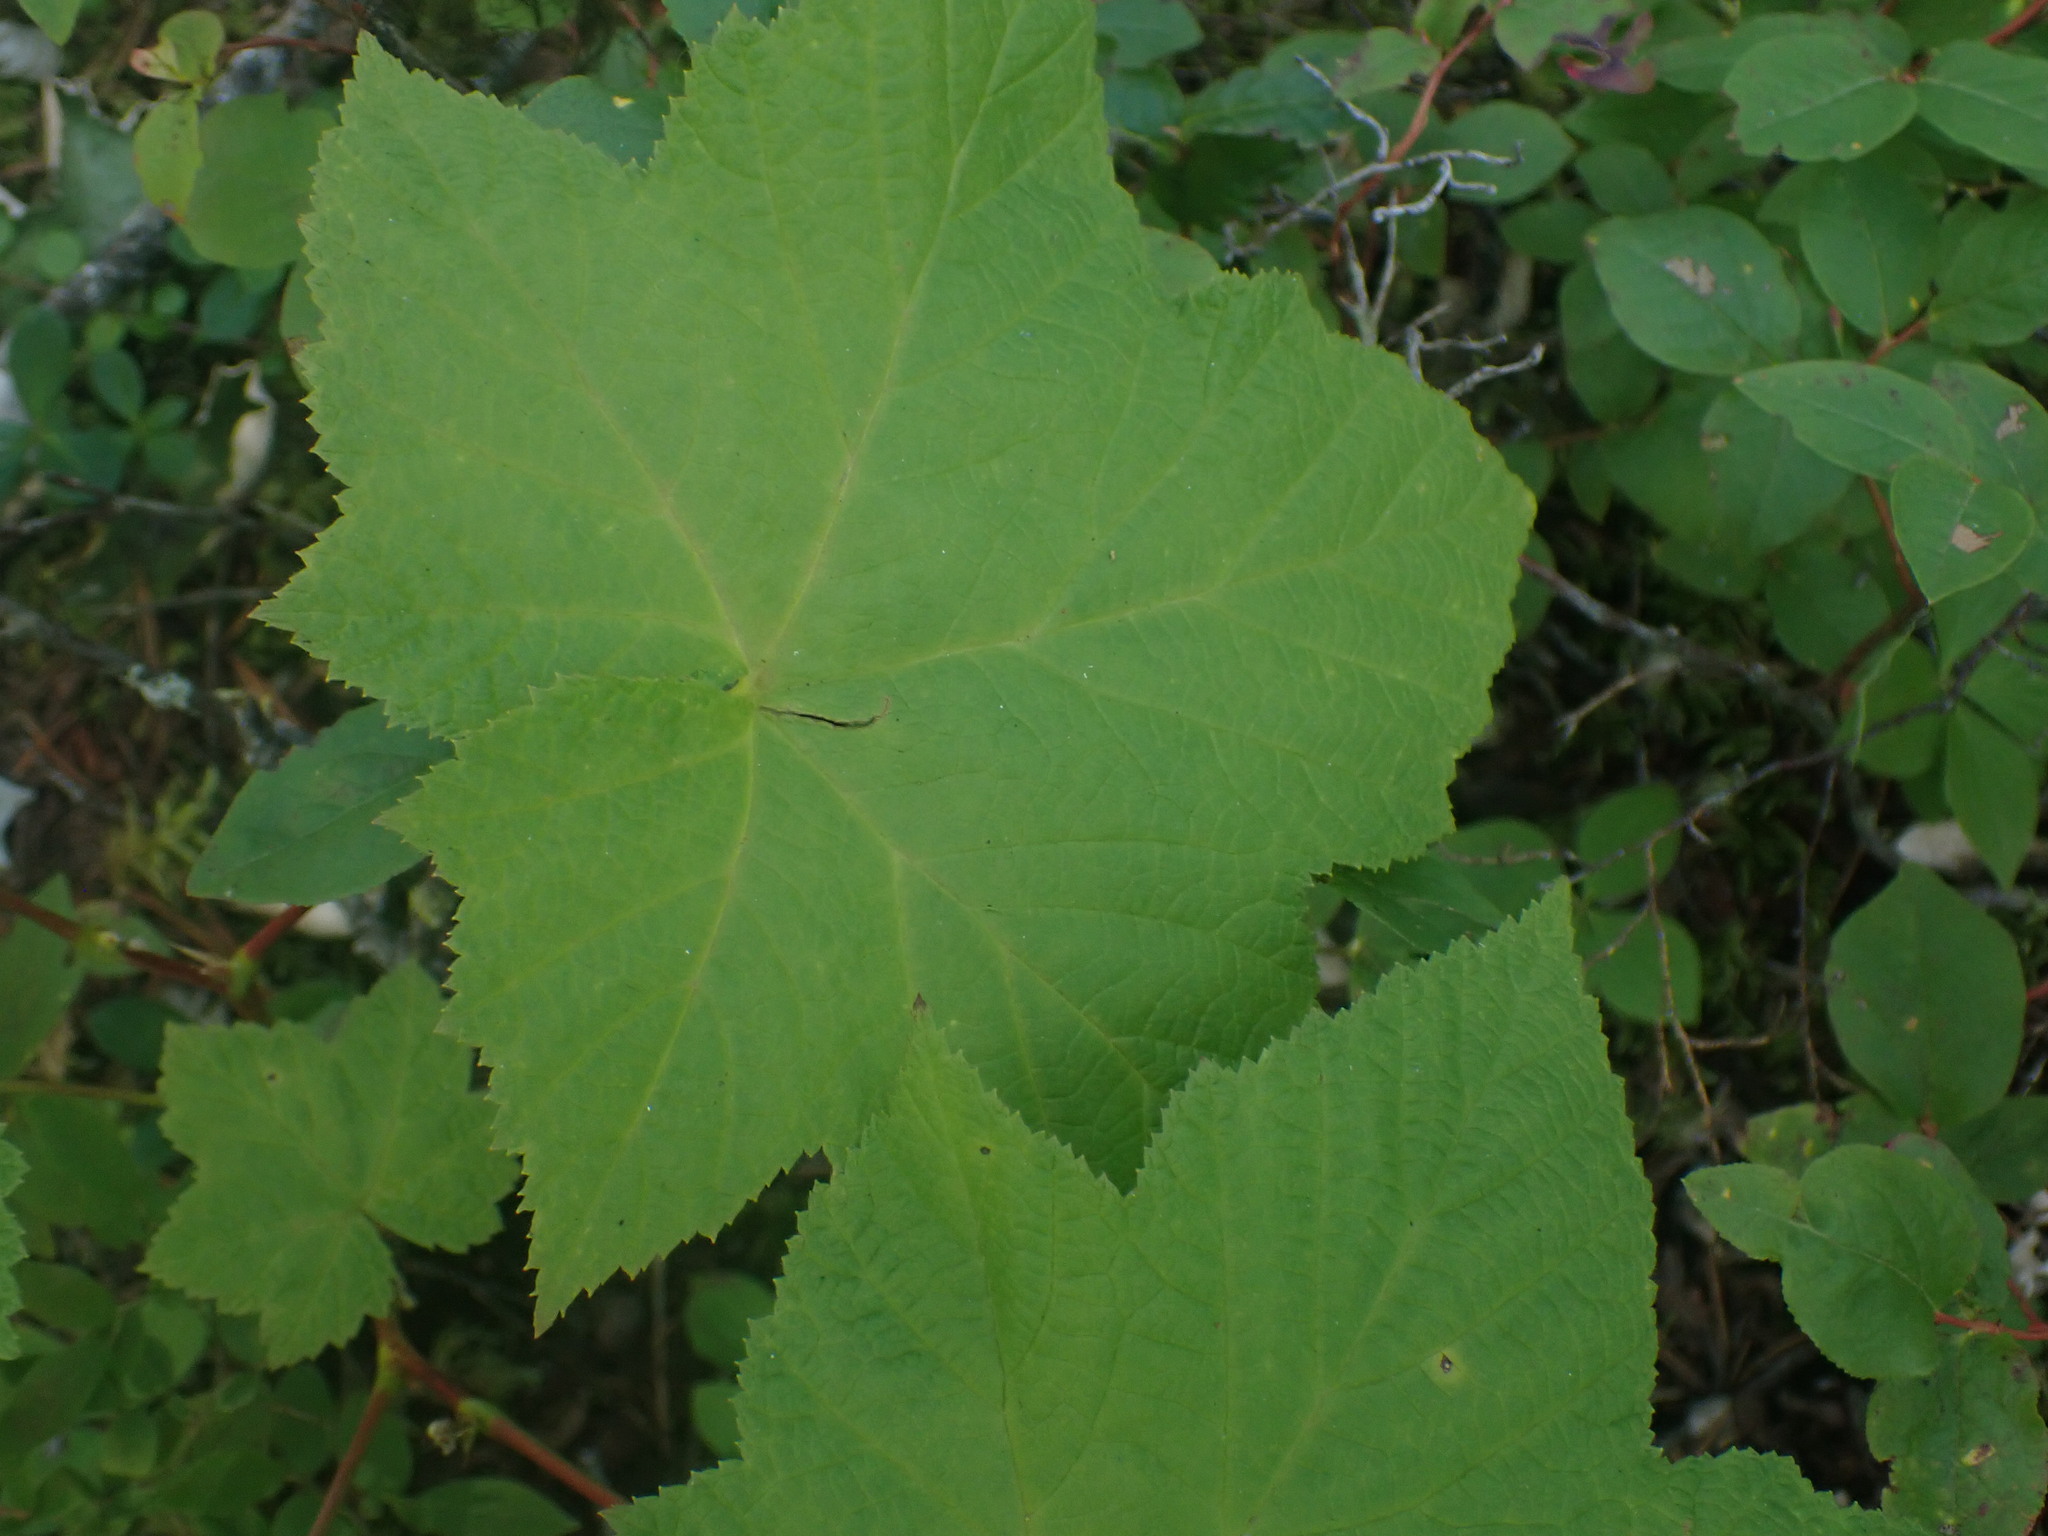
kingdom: Plantae
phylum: Tracheophyta
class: Magnoliopsida
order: Rosales
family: Rosaceae
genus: Rubus
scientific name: Rubus parviflorus
